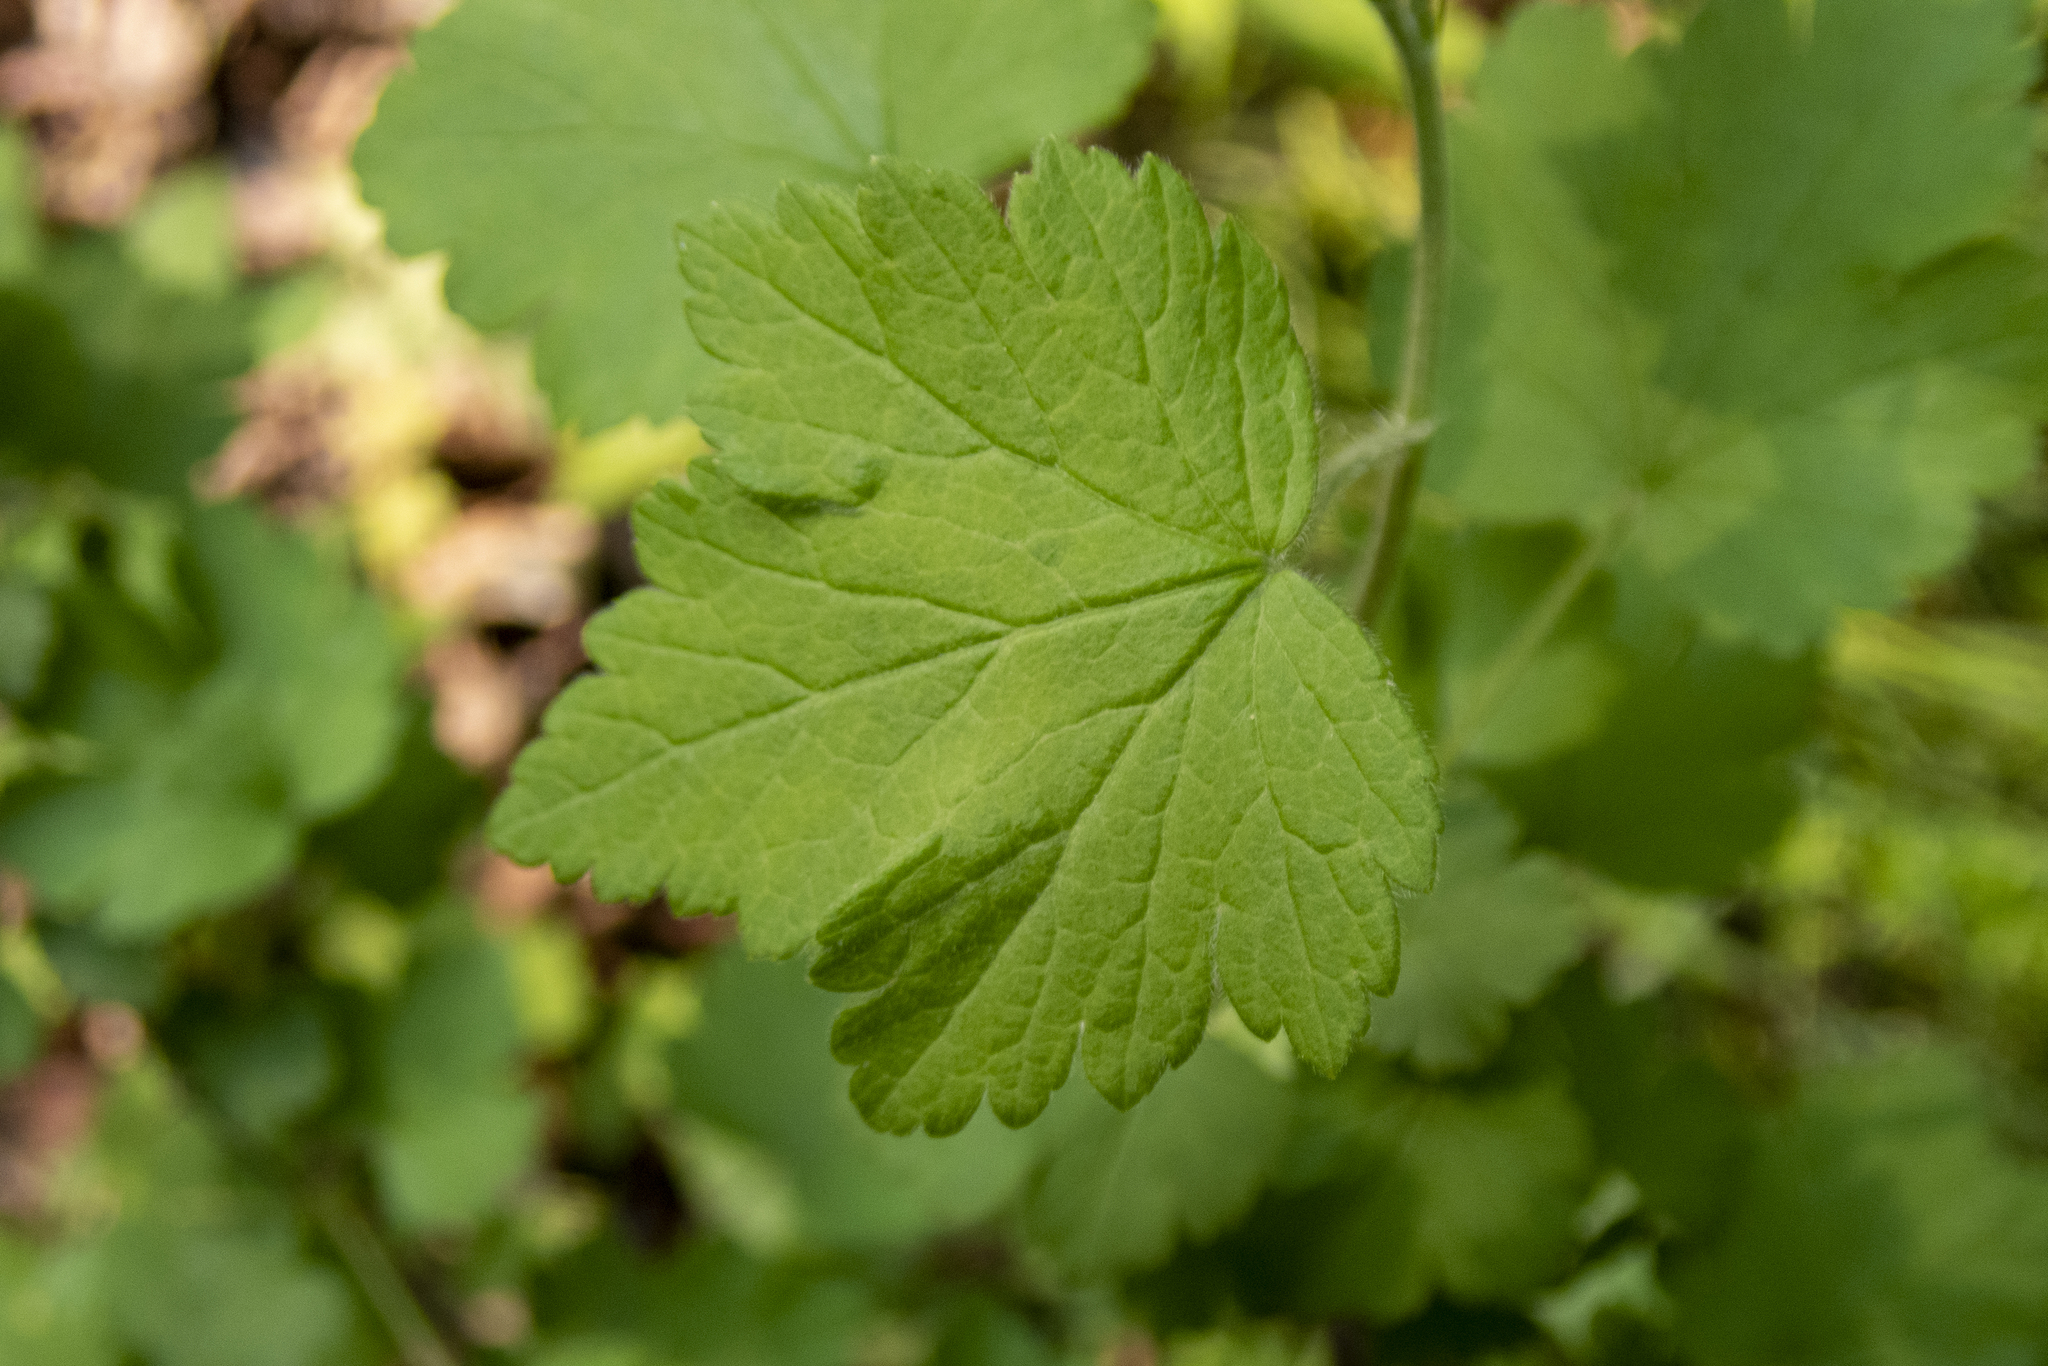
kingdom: Plantae
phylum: Tracheophyta
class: Magnoliopsida
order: Saxifragales
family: Grossulariaceae
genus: Ribes
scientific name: Ribes cynosbati
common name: American gooseberry
